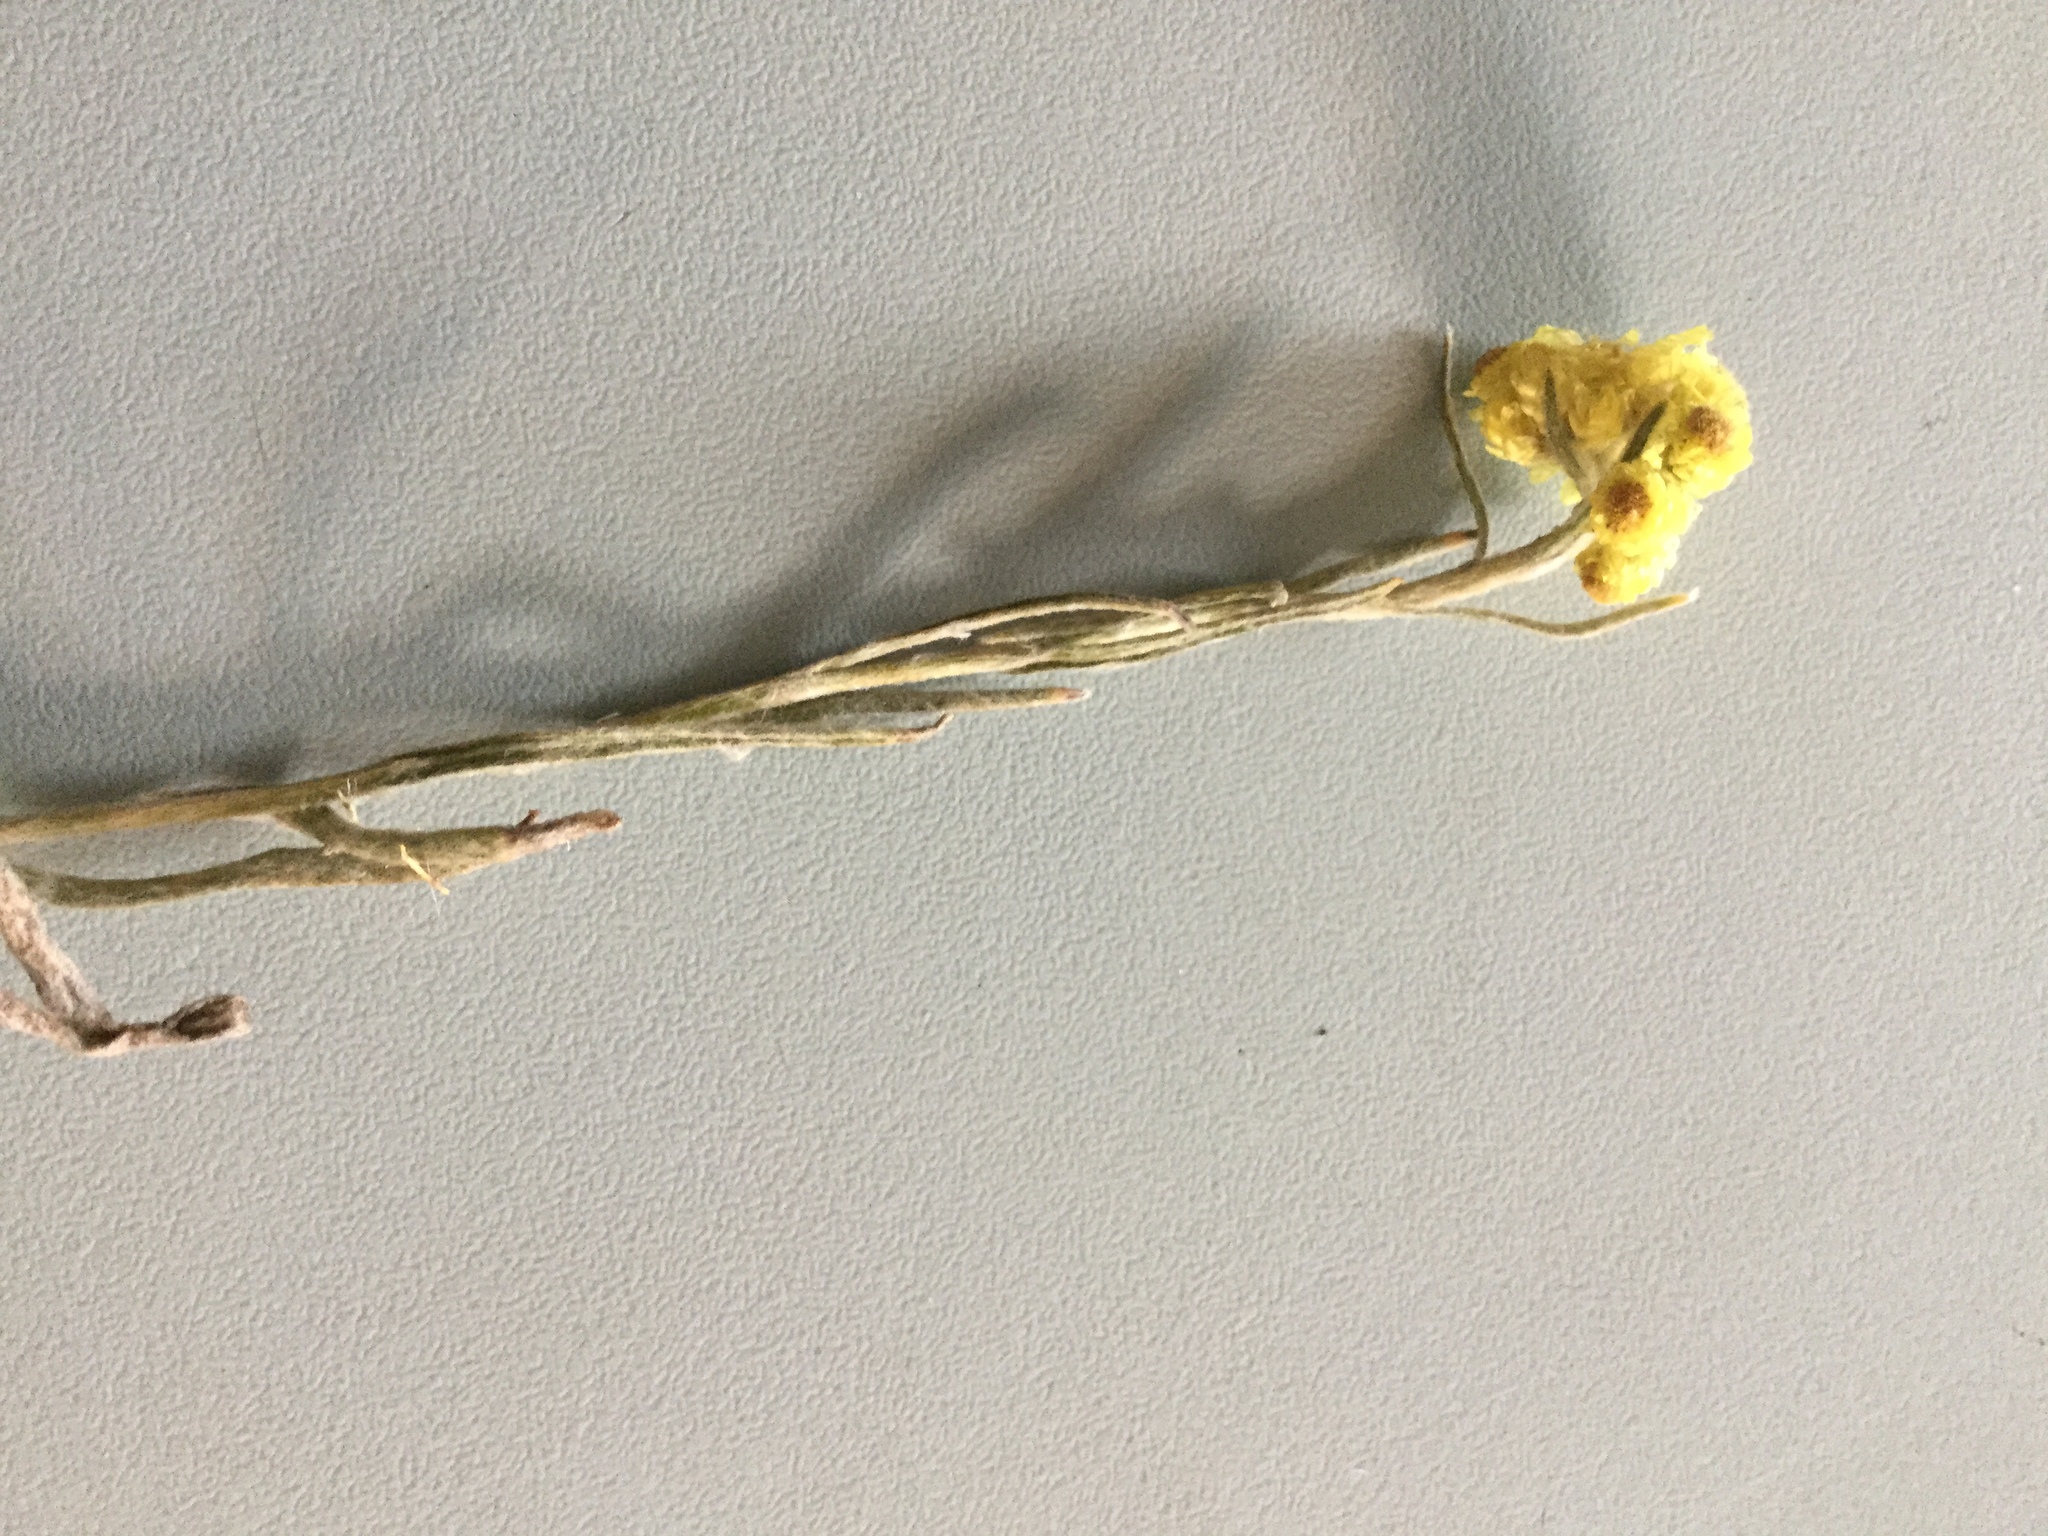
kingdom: Plantae
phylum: Tracheophyta
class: Magnoliopsida
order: Asterales
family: Asteraceae
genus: Helichrysum
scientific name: Helichrysum arenarium
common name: Strawflower
